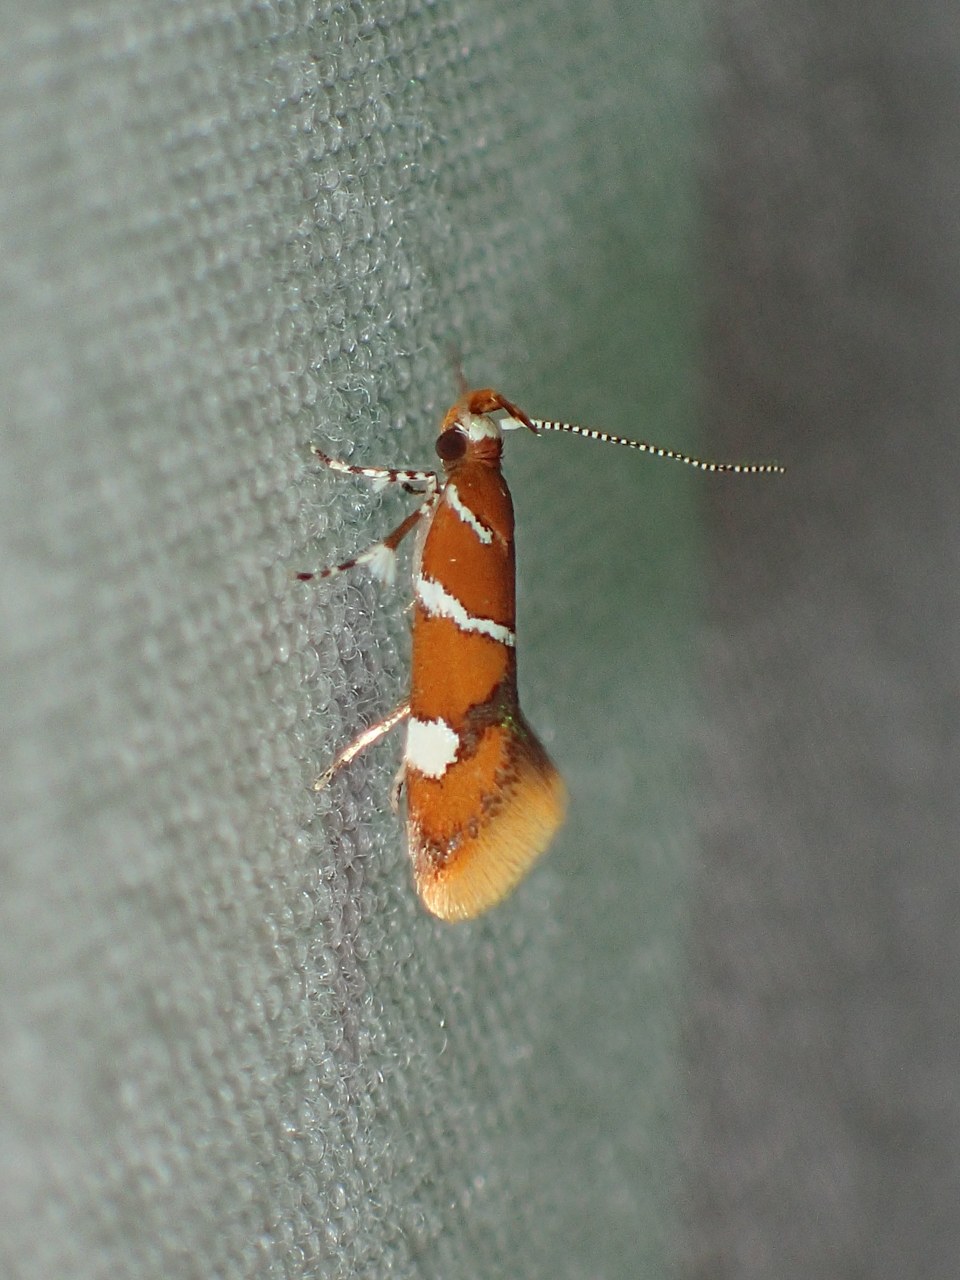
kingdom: Animalia
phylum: Arthropoda
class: Insecta
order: Lepidoptera
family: Oecophoridae
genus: Promalactis
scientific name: Promalactis suzukiella
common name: Moth
